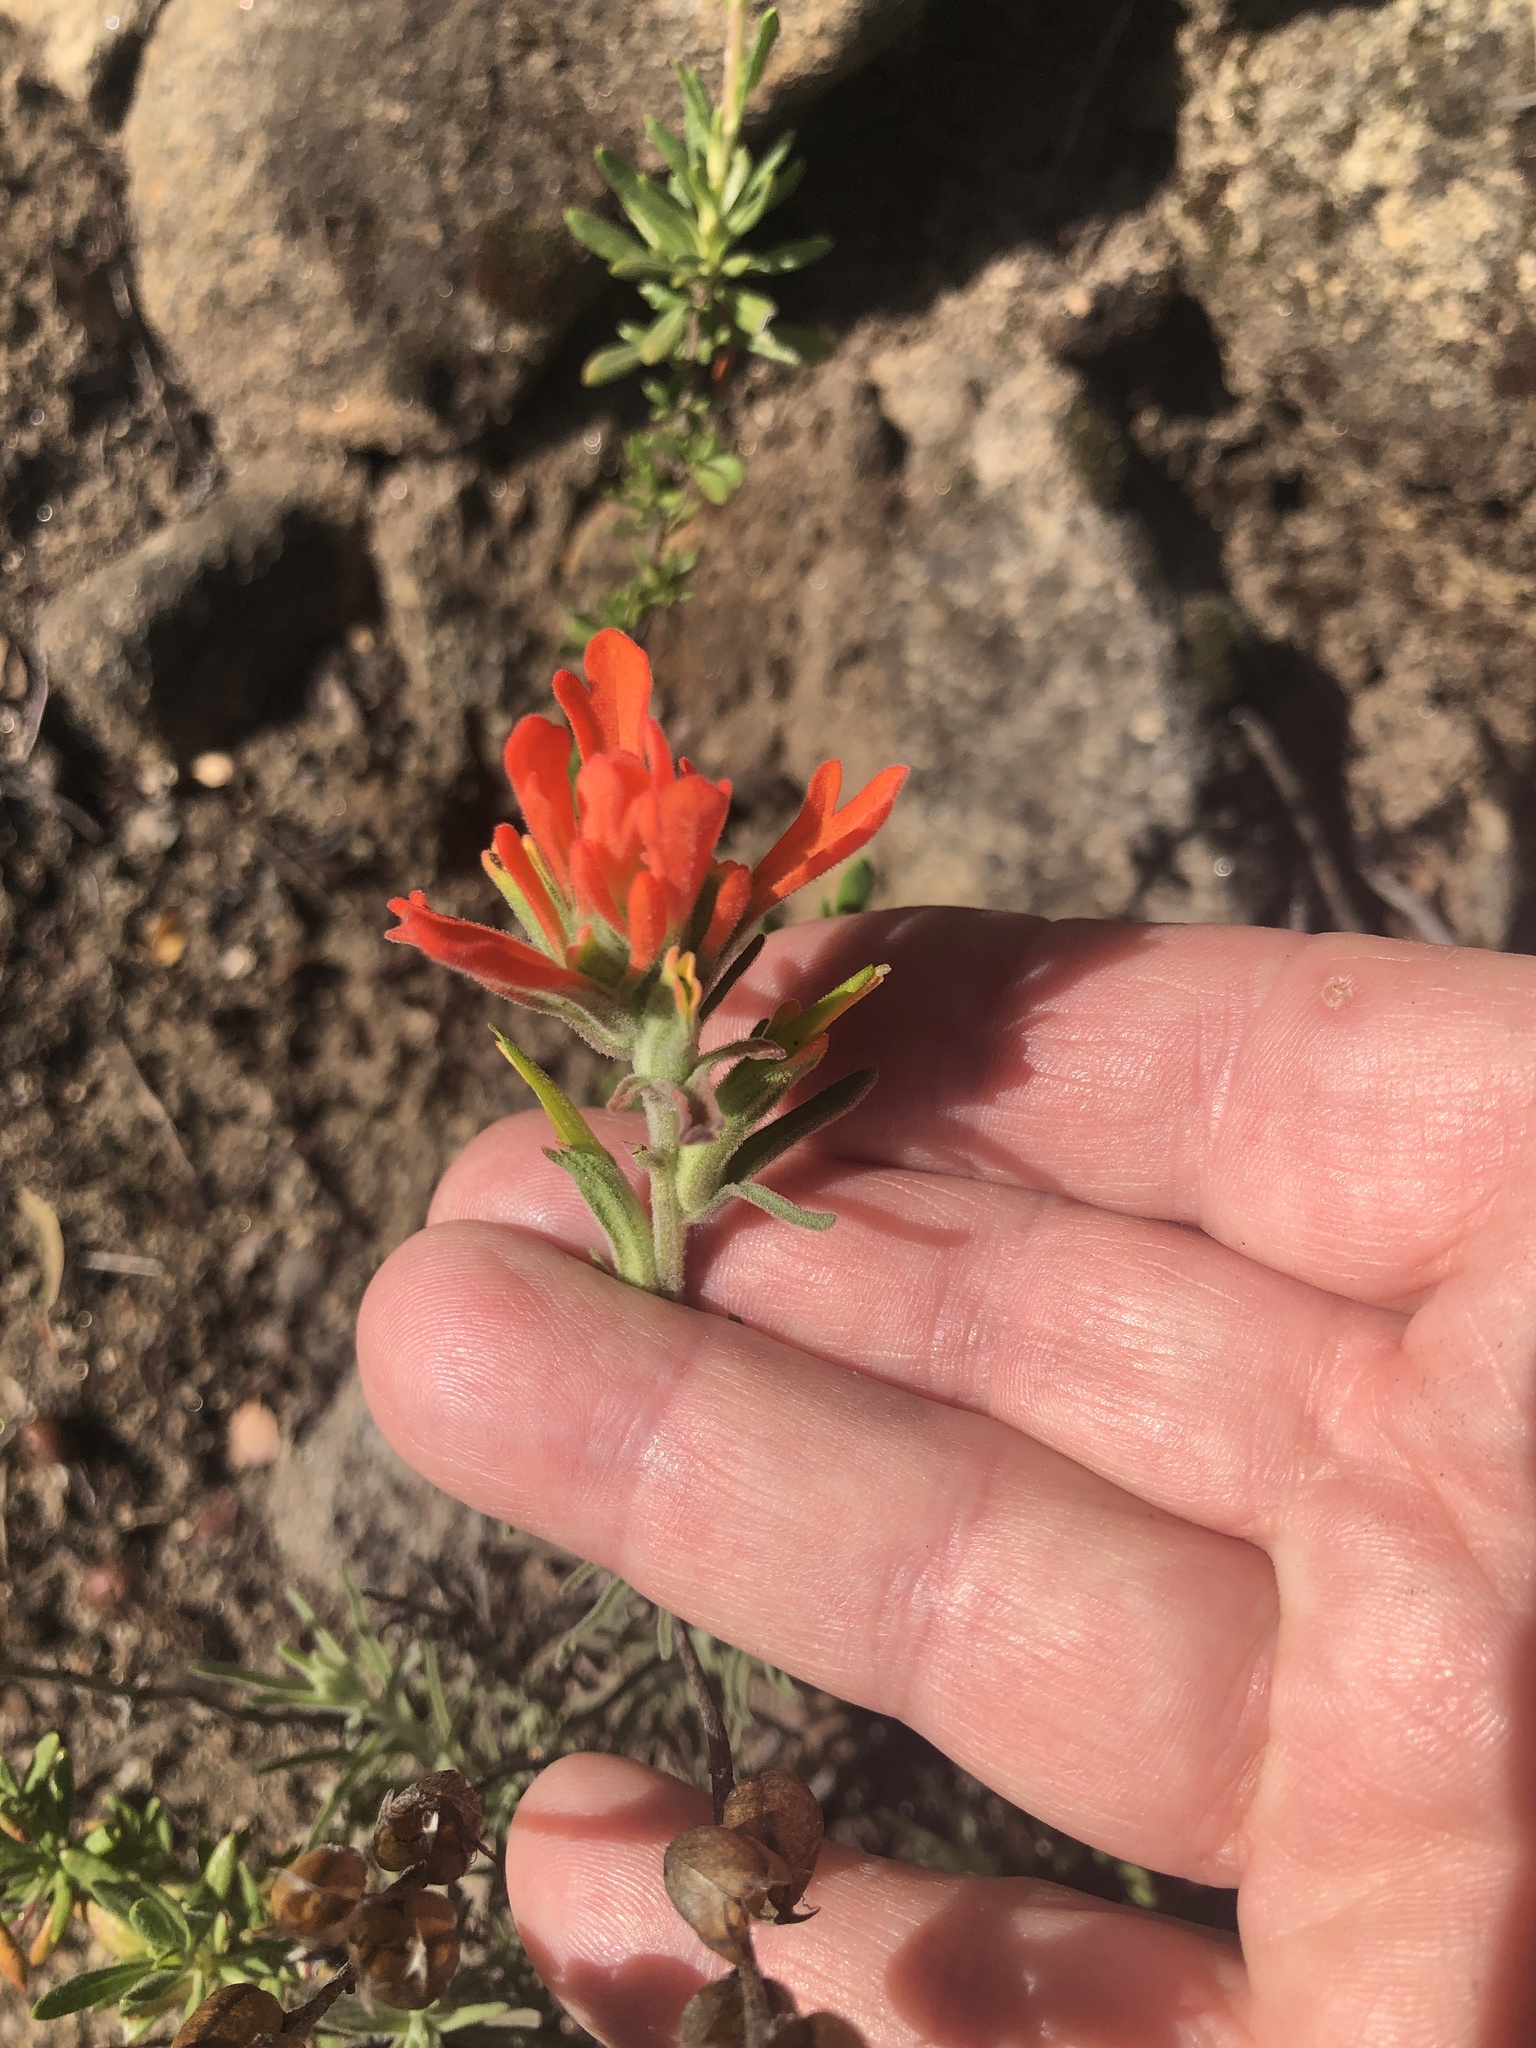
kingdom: Plantae
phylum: Tracheophyta
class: Magnoliopsida
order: Lamiales
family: Orobanchaceae
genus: Castilleja
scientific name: Castilleja foliolosa
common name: Woolly indian paintbrush
